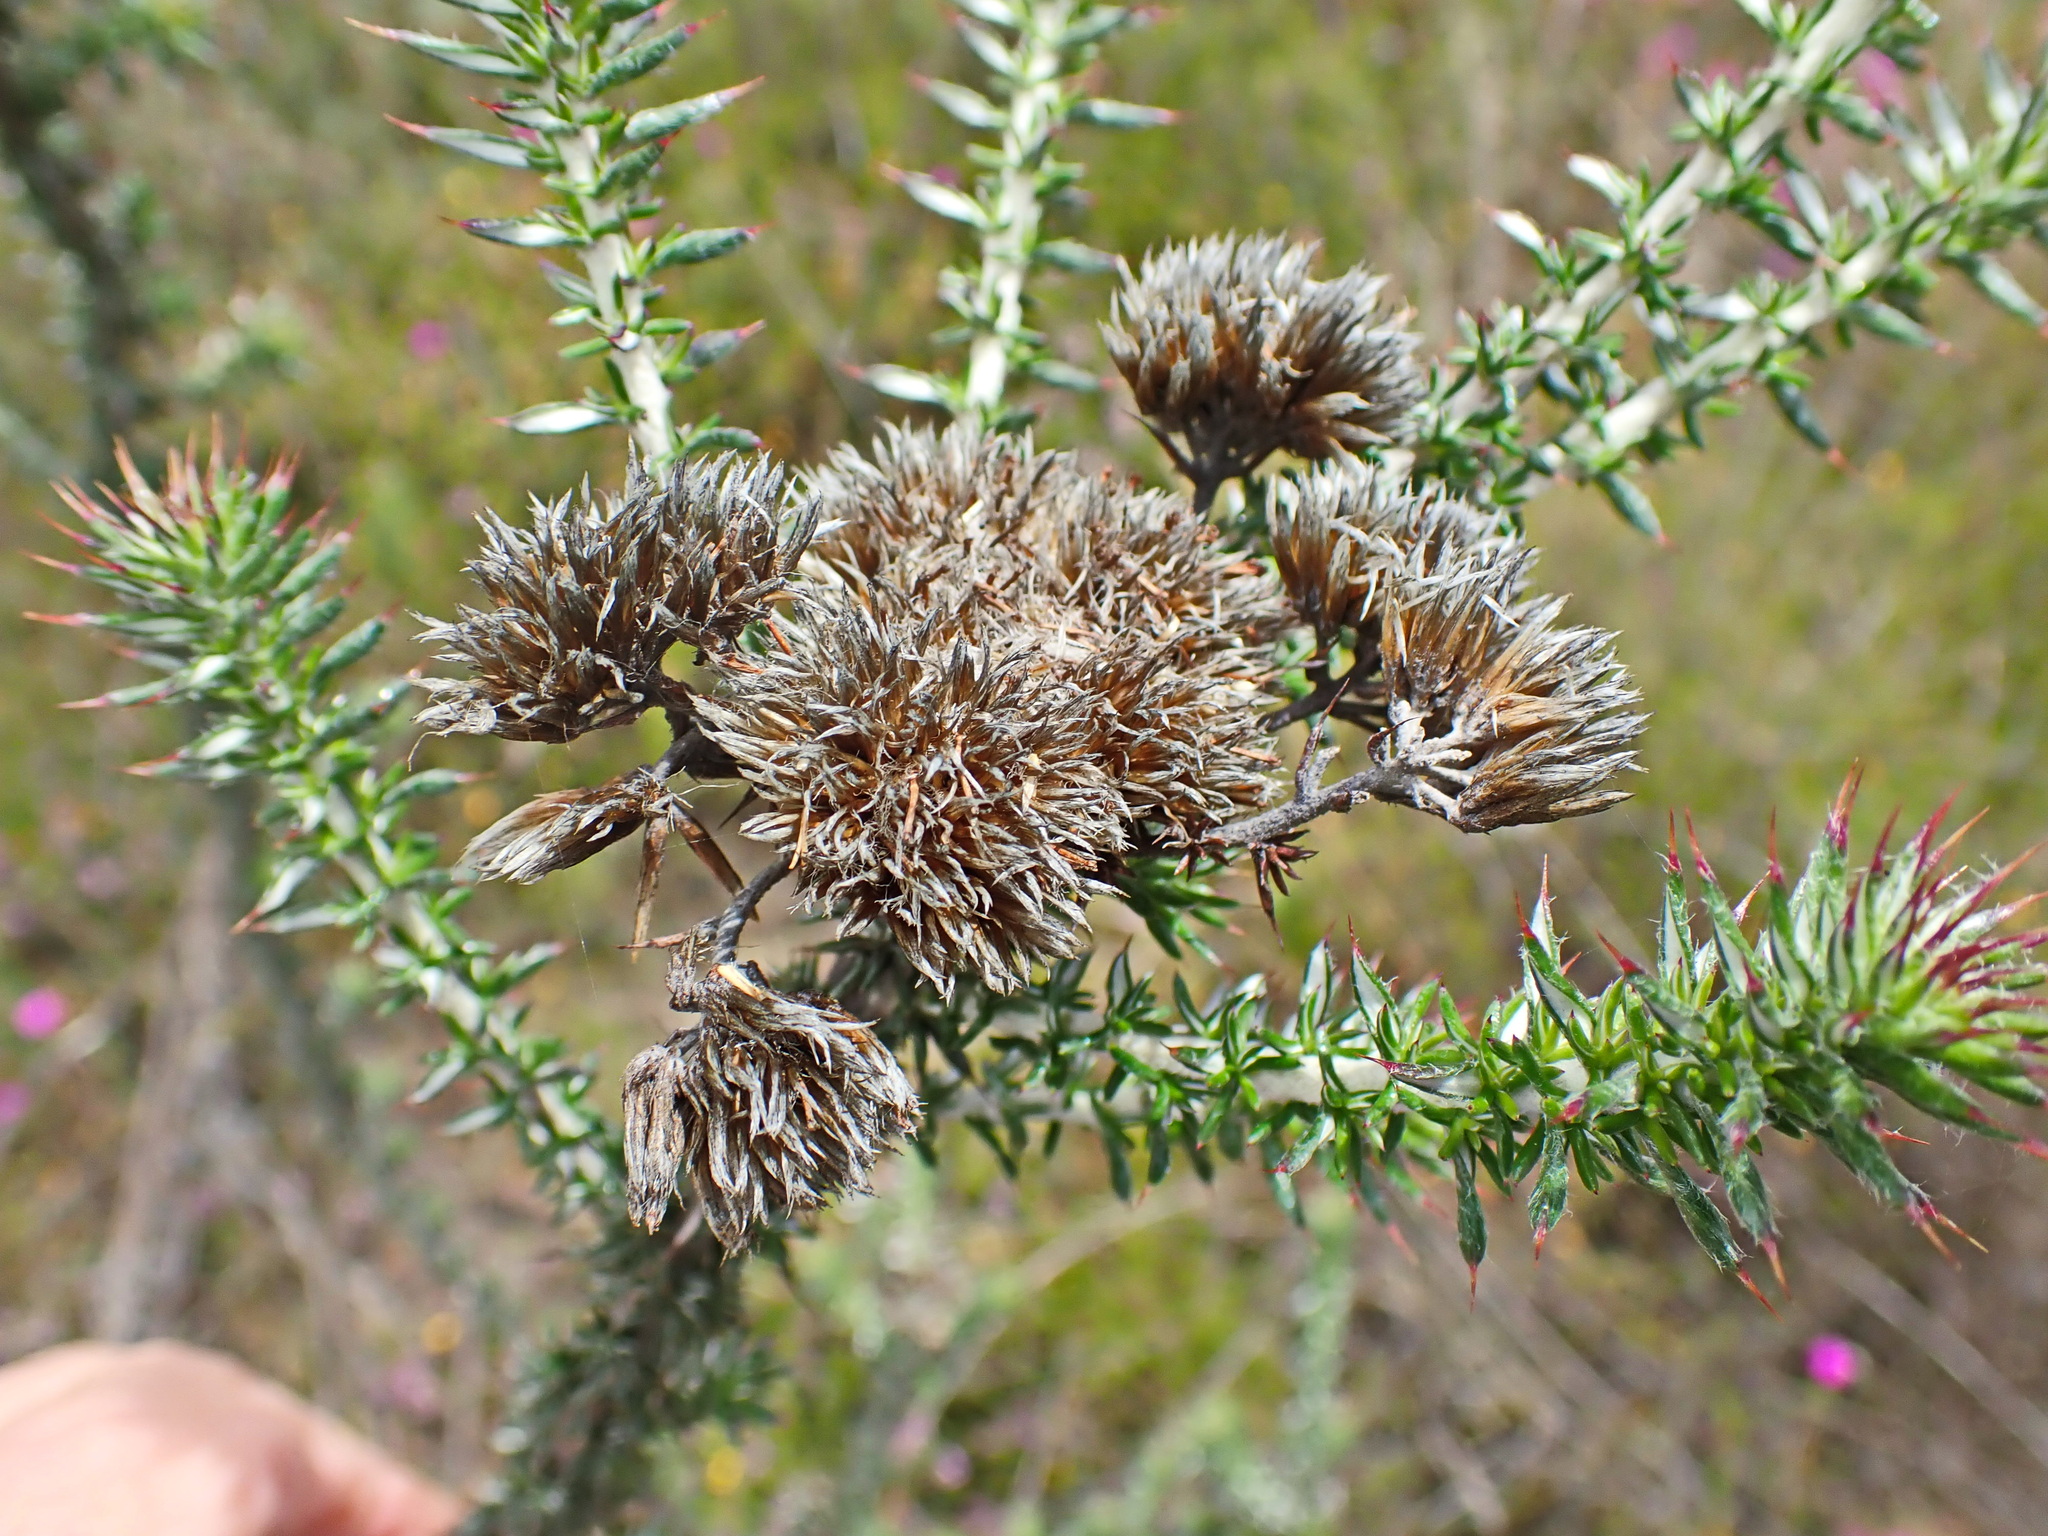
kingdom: Plantae
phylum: Tracheophyta
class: Magnoliopsida
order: Asterales
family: Asteraceae
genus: Metalasia
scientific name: Metalasia acuta
